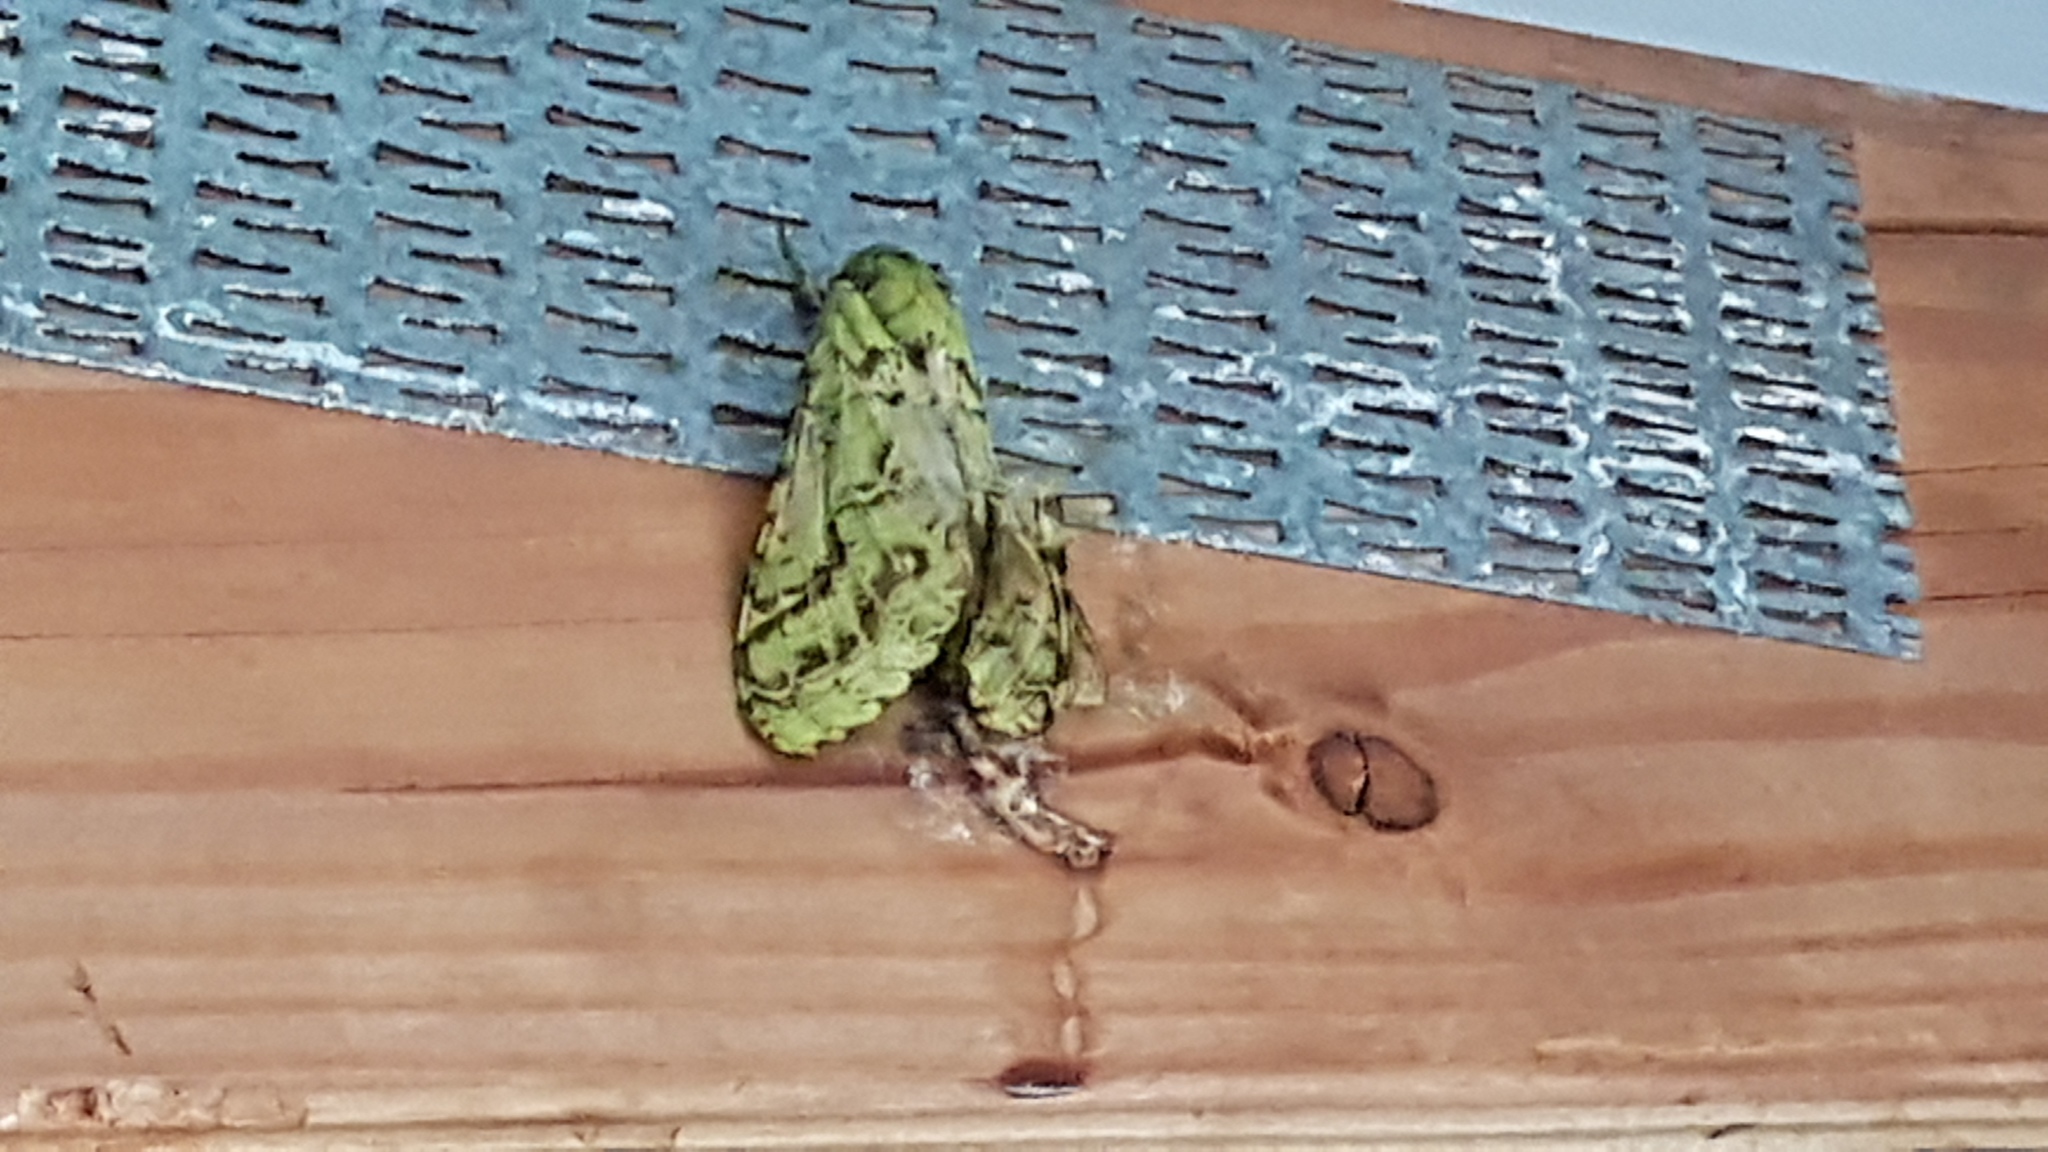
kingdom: Animalia
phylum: Arthropoda
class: Insecta
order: Lepidoptera
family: Hepialidae
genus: Aenetus
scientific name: Aenetus virescens
